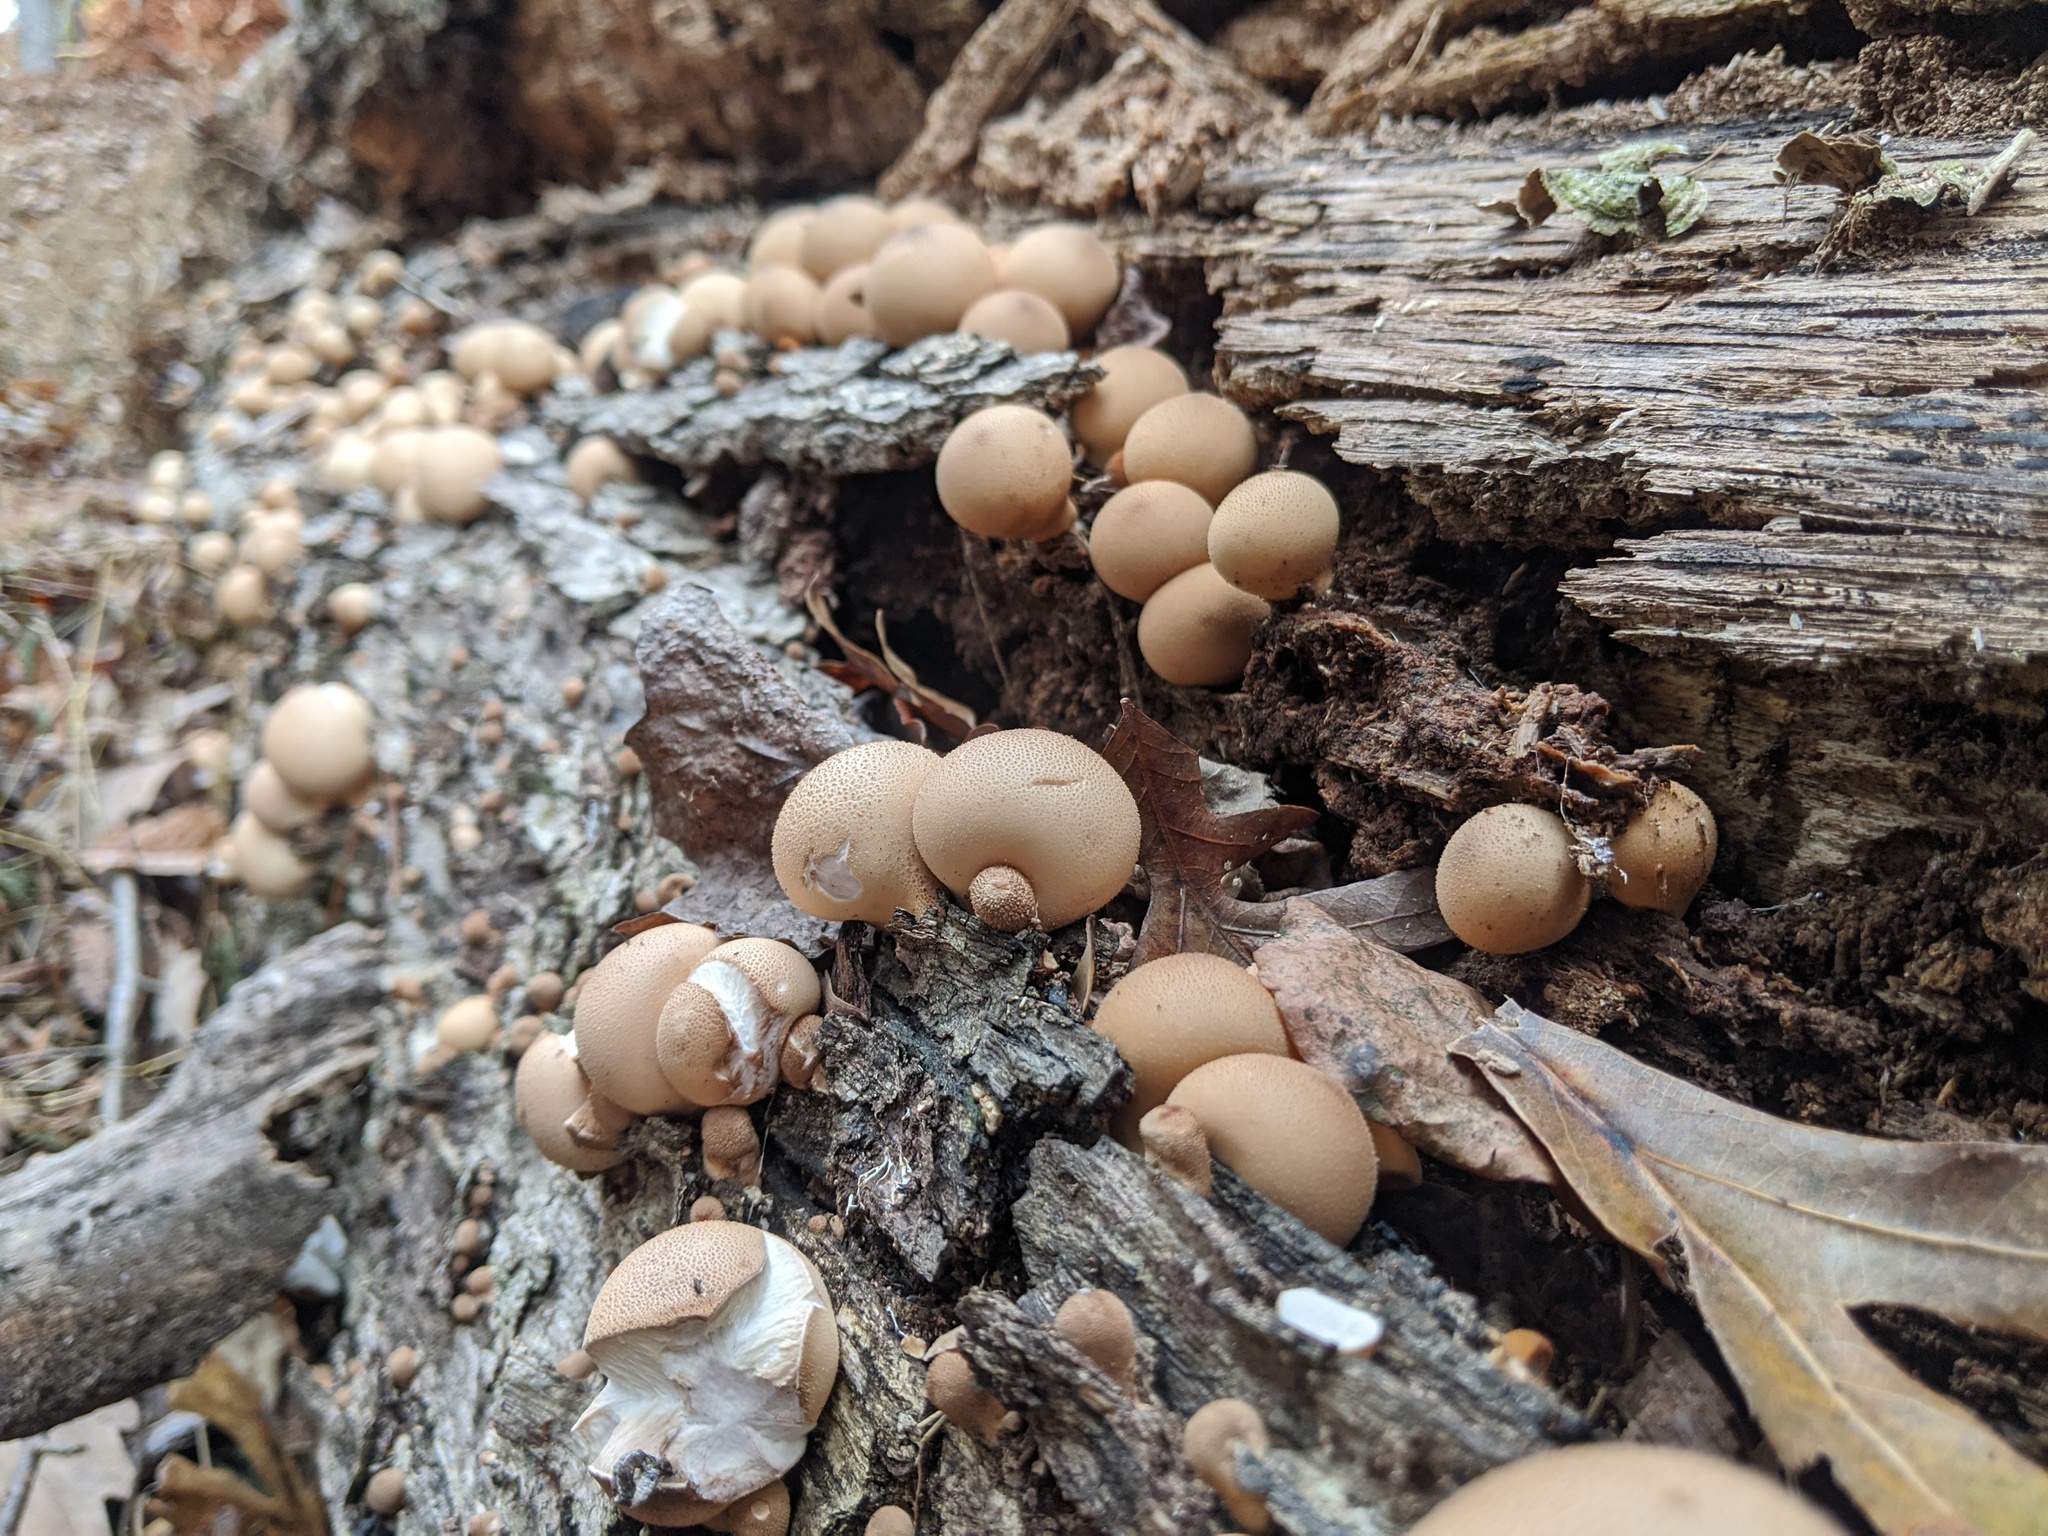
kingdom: Fungi
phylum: Basidiomycota
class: Agaricomycetes
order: Agaricales
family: Lycoperdaceae
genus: Apioperdon
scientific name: Apioperdon pyriforme
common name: Pear-shaped puffball
